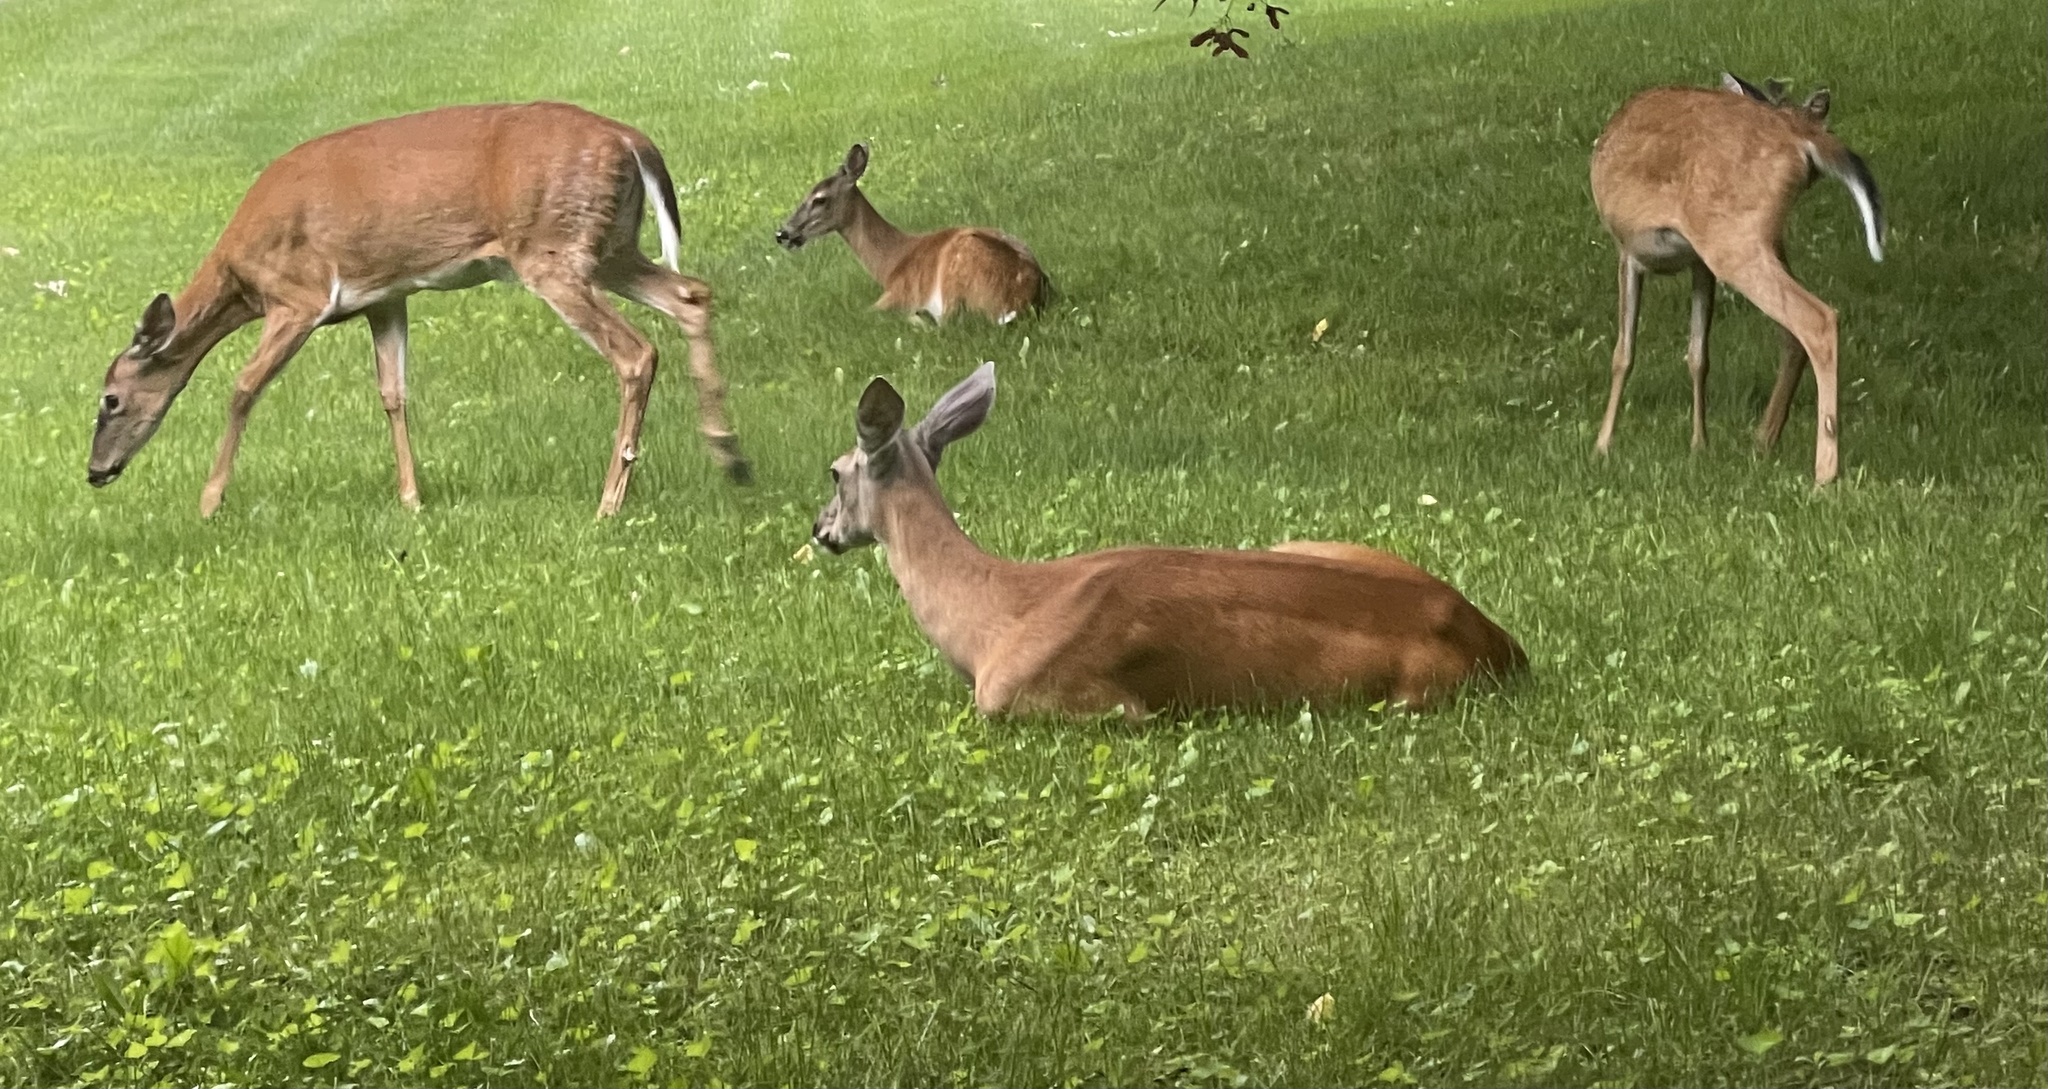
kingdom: Animalia
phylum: Chordata
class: Mammalia
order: Artiodactyla
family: Cervidae
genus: Odocoileus
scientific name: Odocoileus virginianus
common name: White-tailed deer
